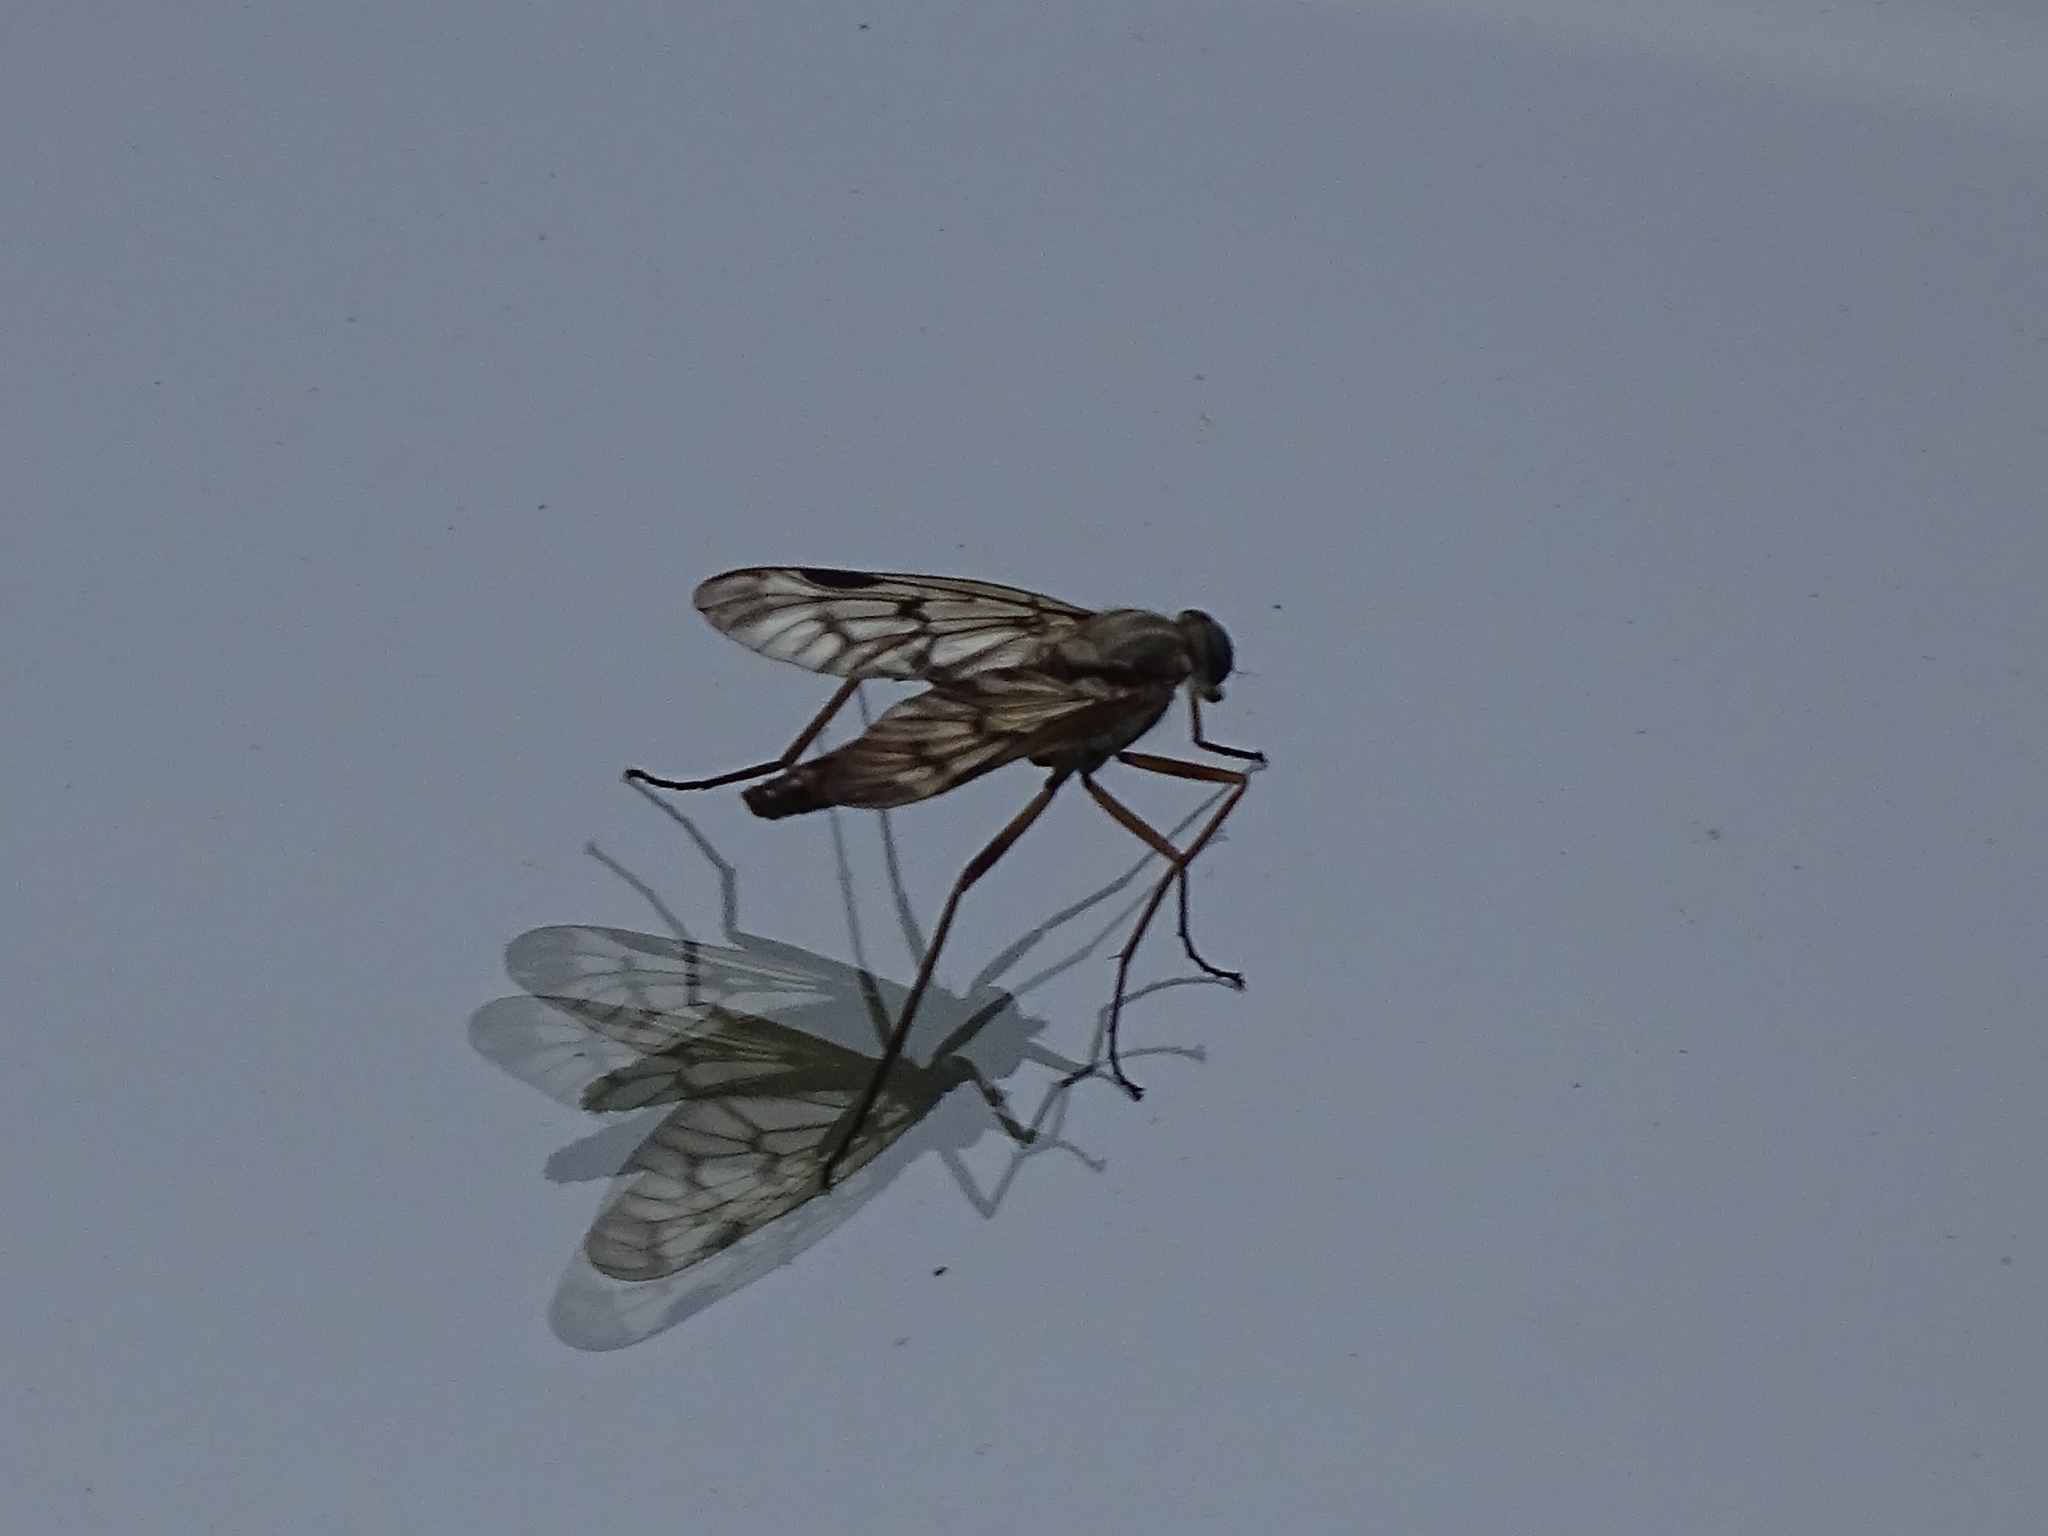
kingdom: Animalia
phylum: Arthropoda
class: Insecta
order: Diptera
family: Rhagionidae
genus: Rhagio
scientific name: Rhagio scolopacea
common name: Downlooker snipefly
